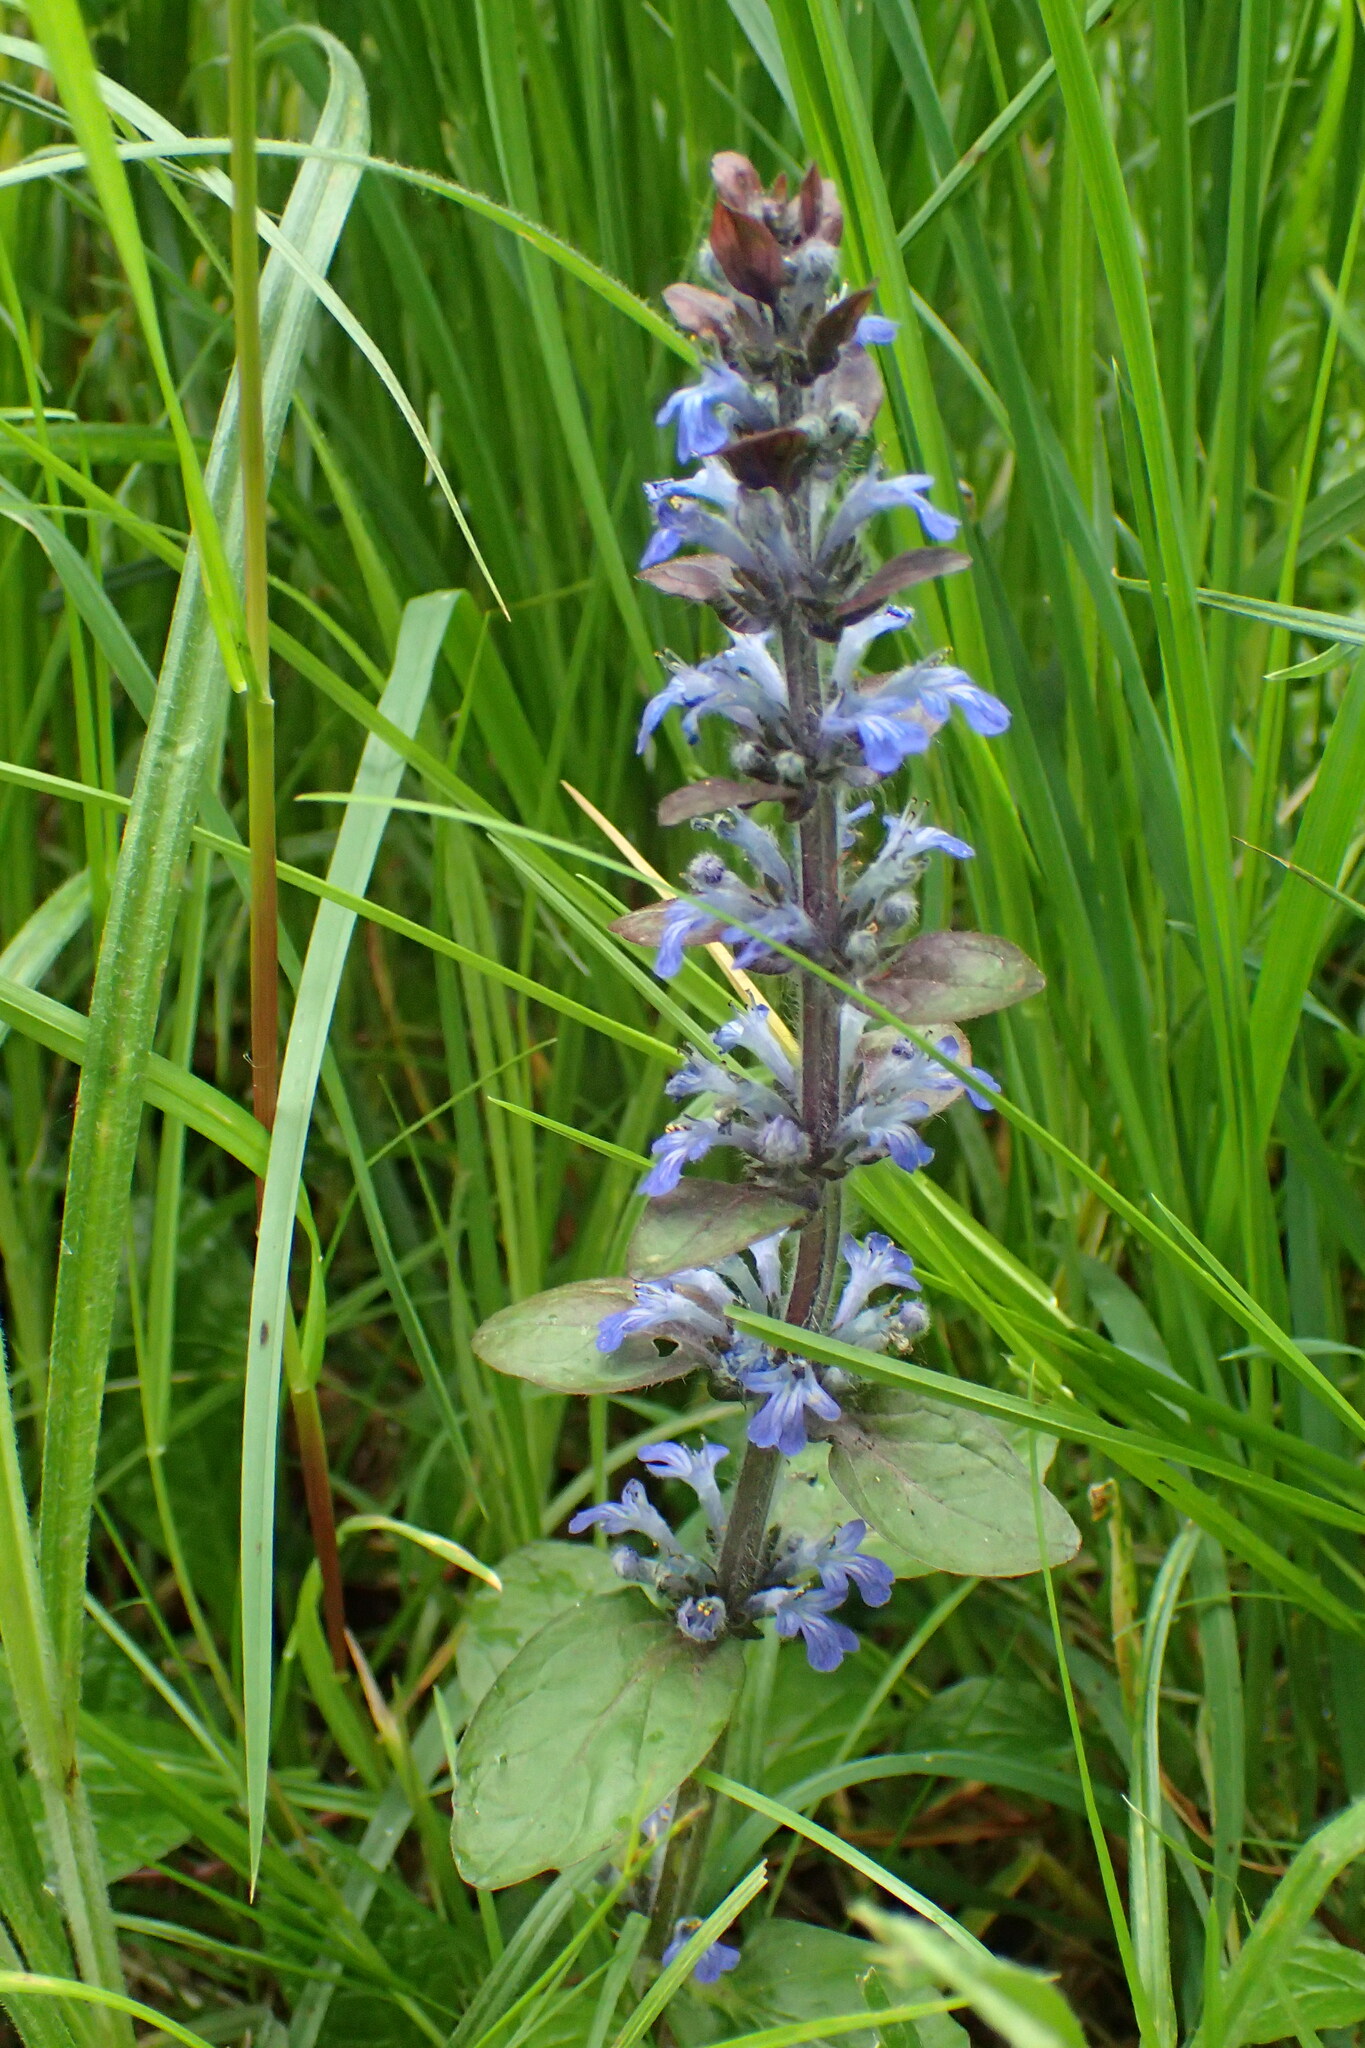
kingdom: Plantae
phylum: Tracheophyta
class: Magnoliopsida
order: Lamiales
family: Lamiaceae
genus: Ajuga
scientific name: Ajuga reptans
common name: Bugle
